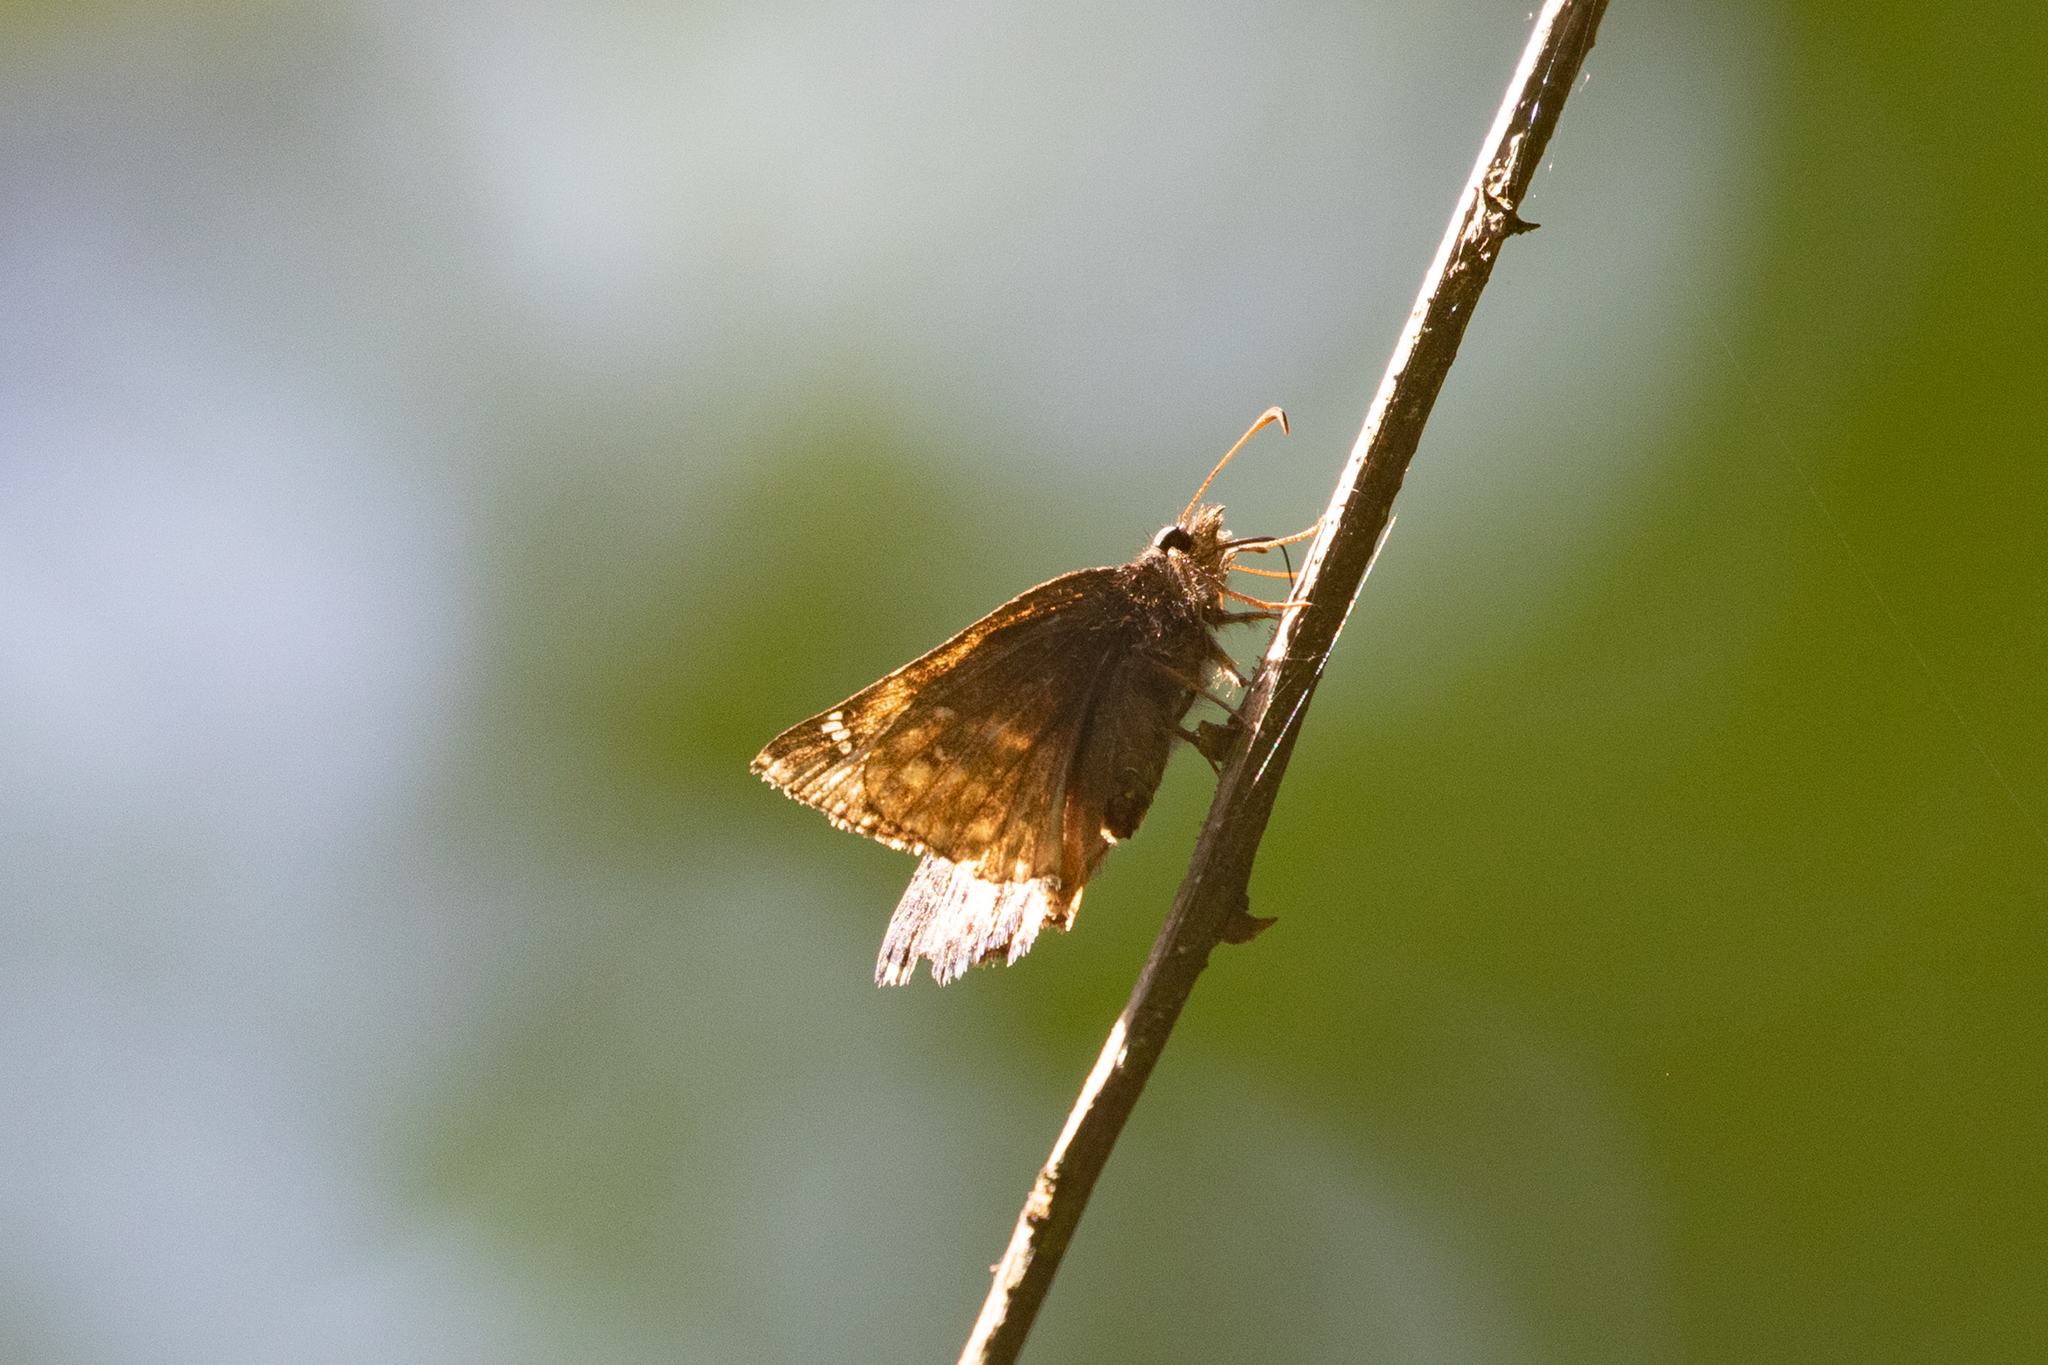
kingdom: Animalia
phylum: Arthropoda
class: Insecta
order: Lepidoptera
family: Hesperiidae
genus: Erynnis
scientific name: Erynnis juvenalis
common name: Juvenal's duskywing
